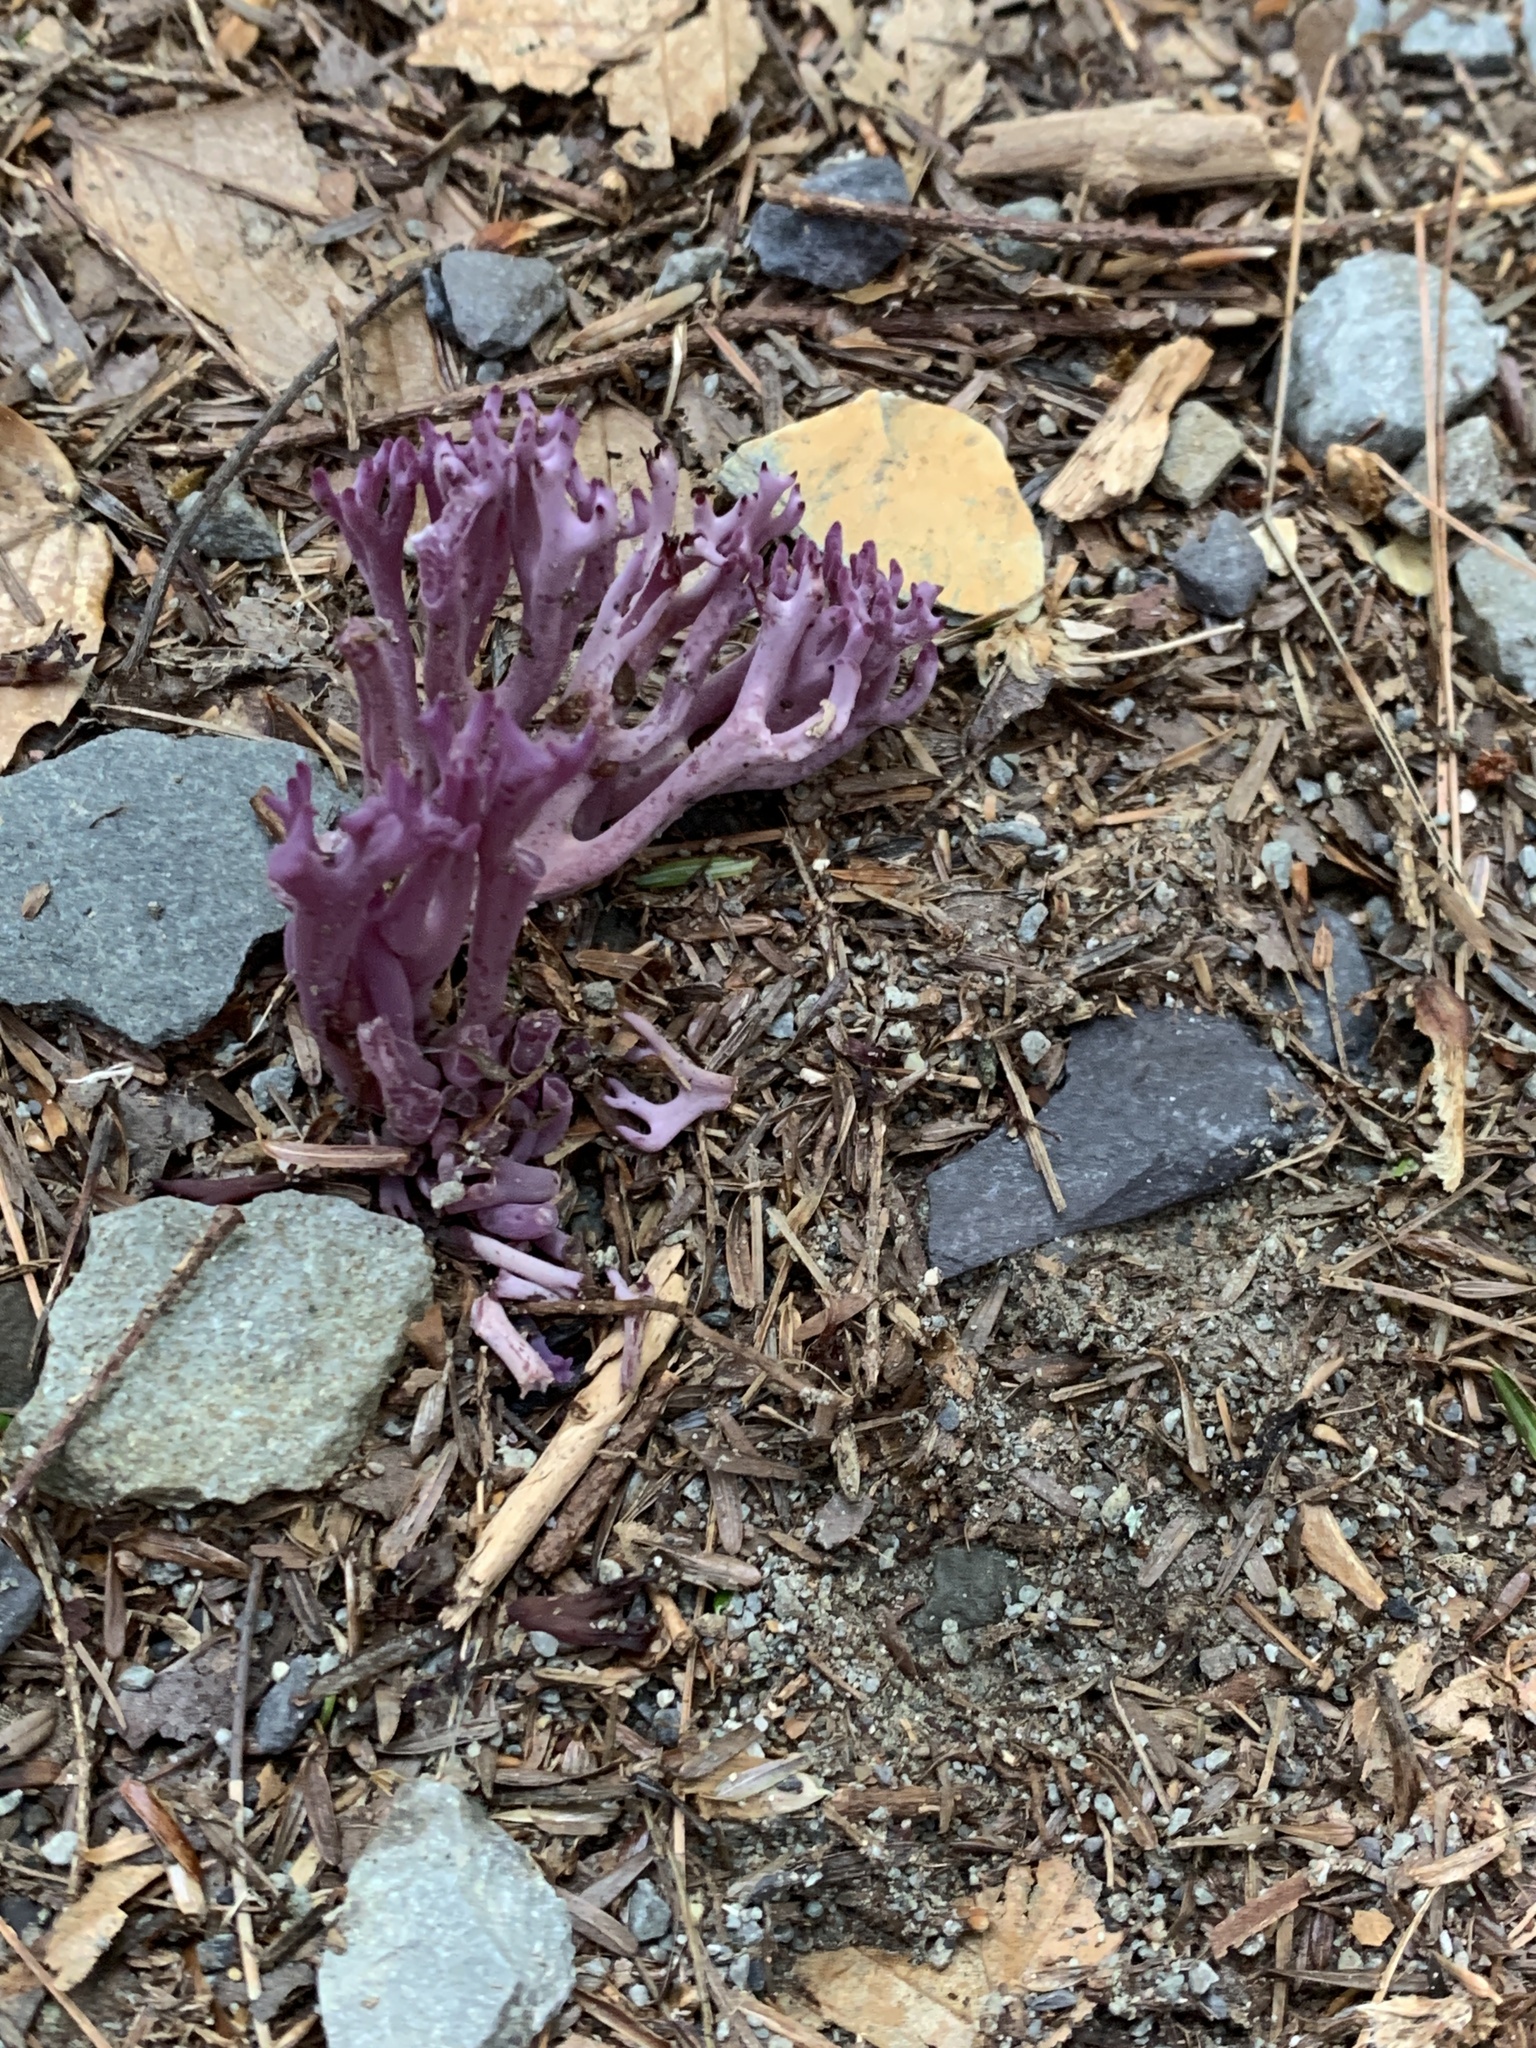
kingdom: Fungi
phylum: Basidiomycota
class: Agaricomycetes
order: Agaricales
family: Clavariaceae
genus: Clavaria
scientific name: Clavaria zollingeri
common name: Violet coral
